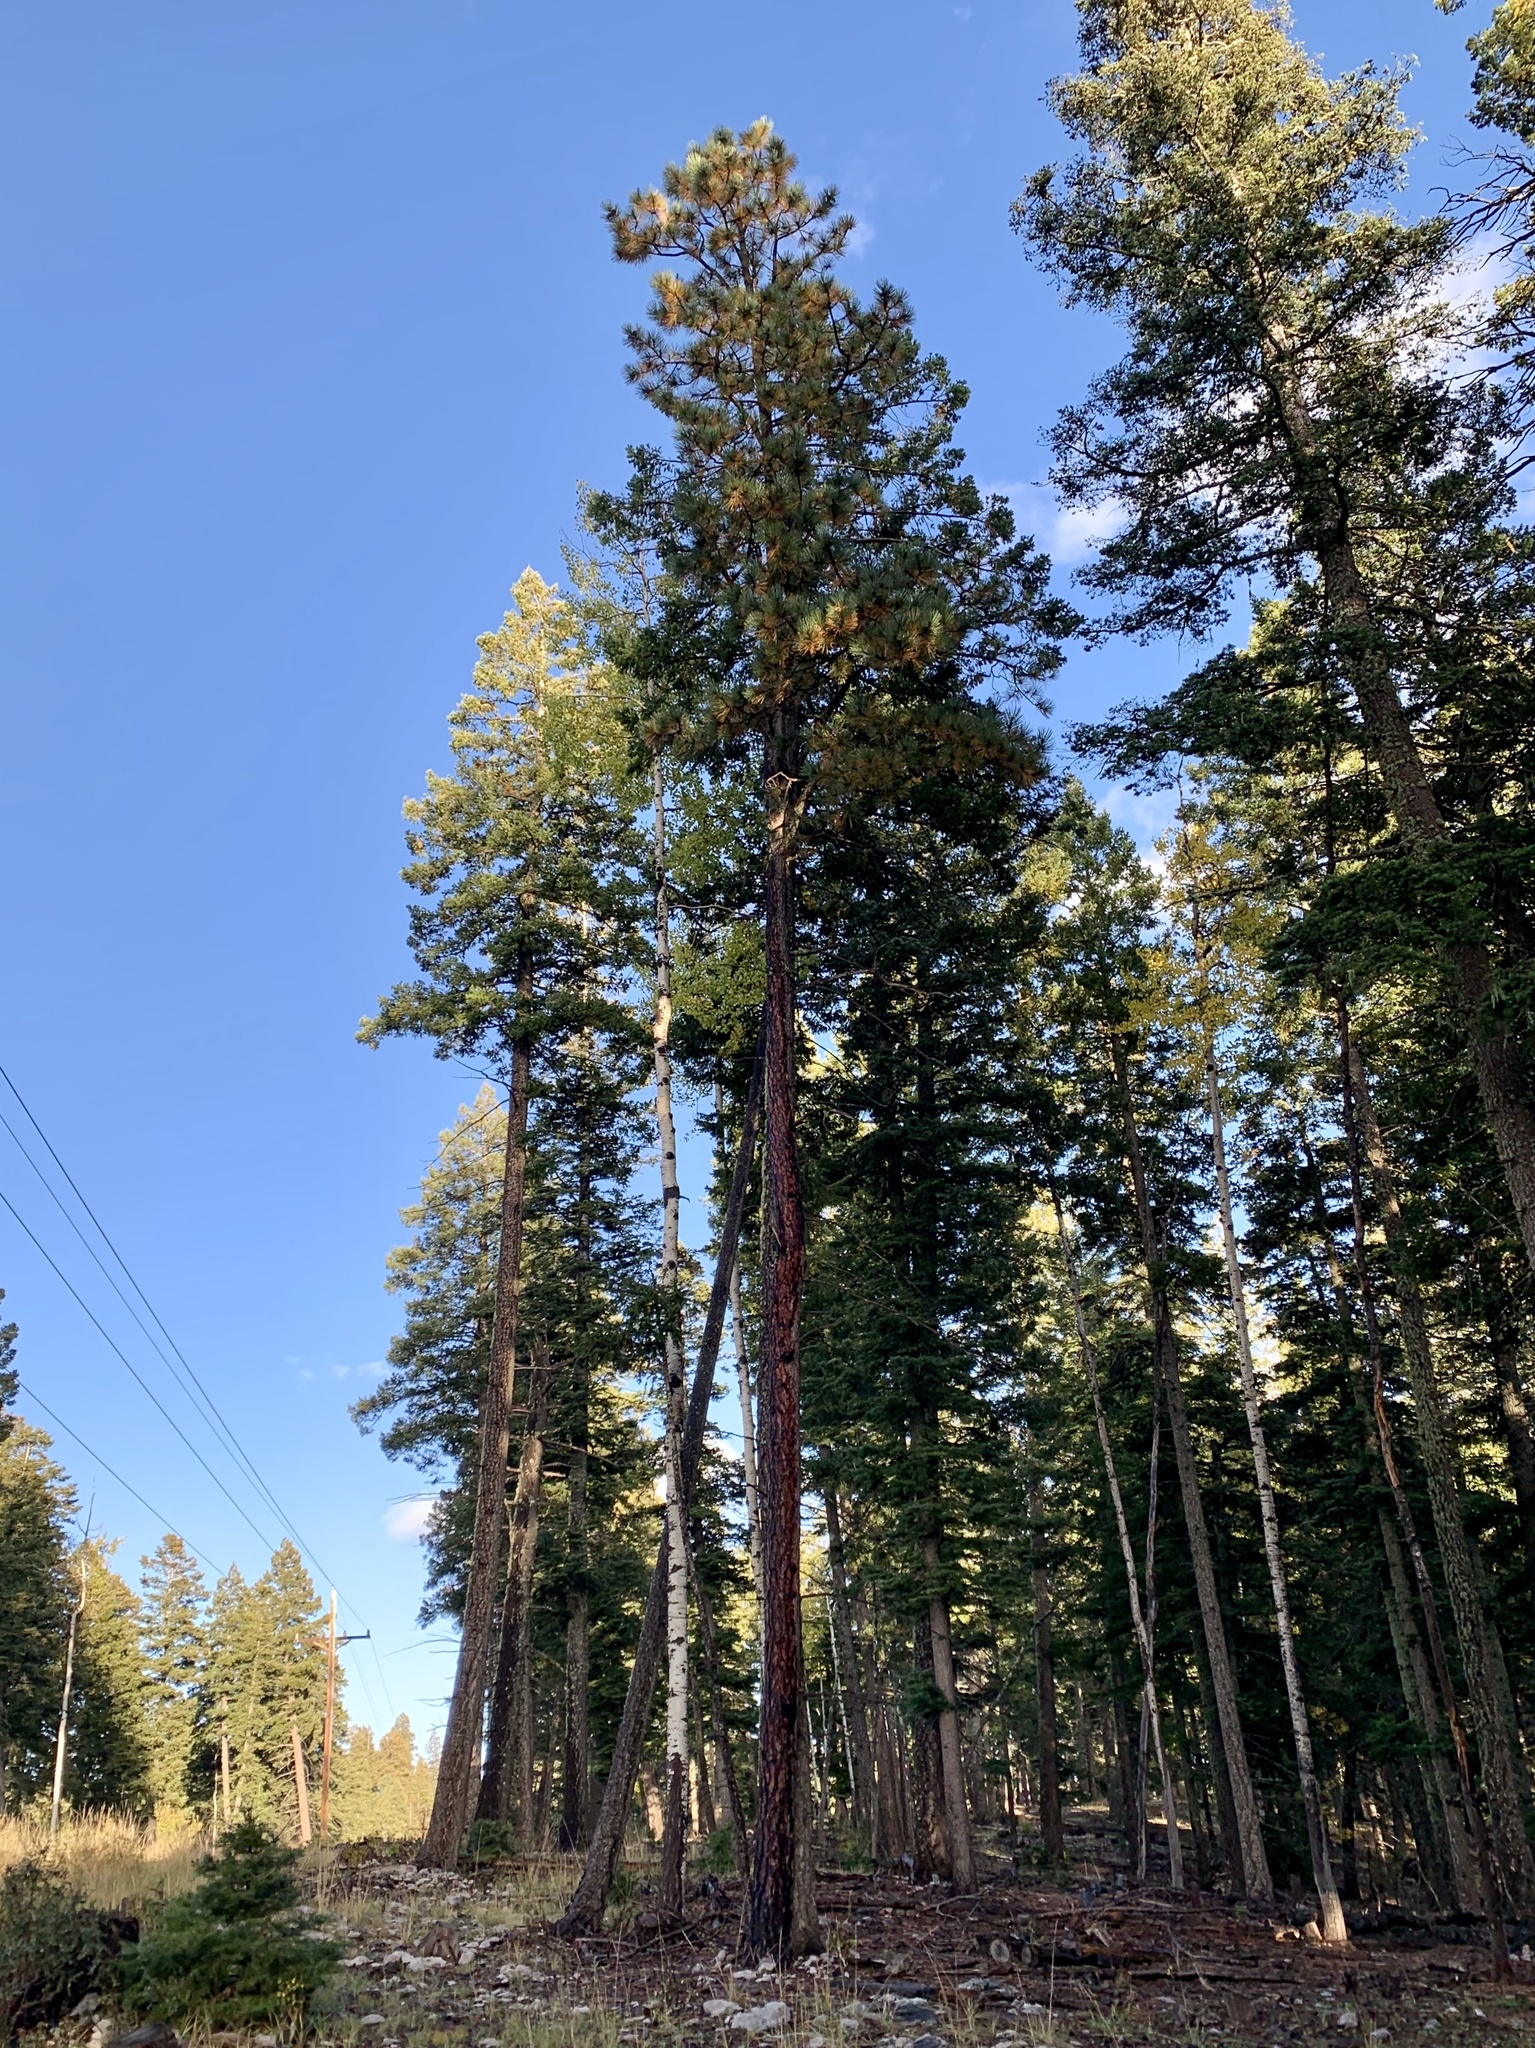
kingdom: Plantae
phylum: Tracheophyta
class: Pinopsida
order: Pinales
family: Pinaceae
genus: Pinus
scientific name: Pinus ponderosa
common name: Western yellow-pine
